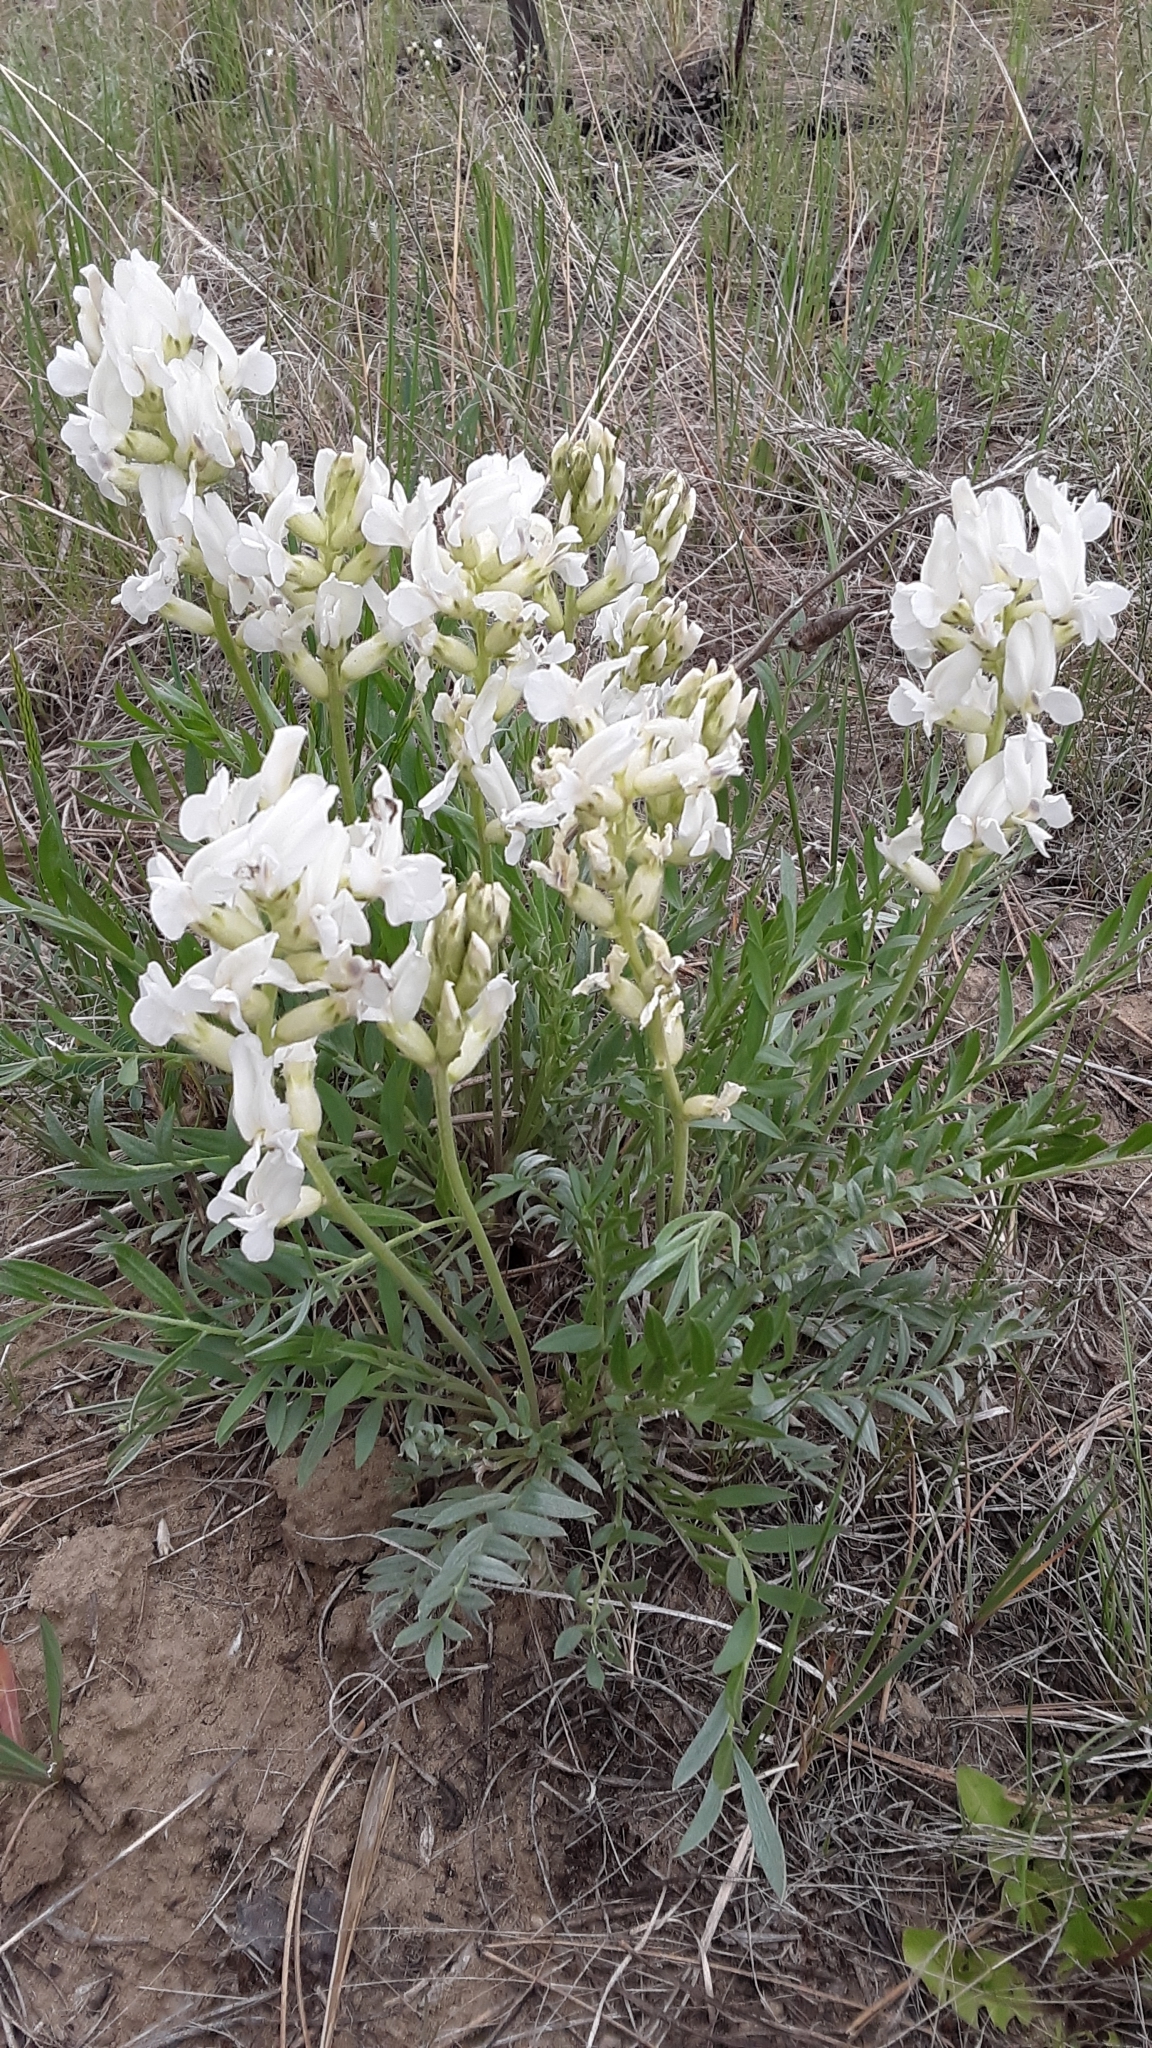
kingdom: Plantae
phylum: Tracheophyta
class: Magnoliopsida
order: Fabales
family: Fabaceae
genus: Oxytropis
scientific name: Oxytropis sericea
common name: Silky locoweed
